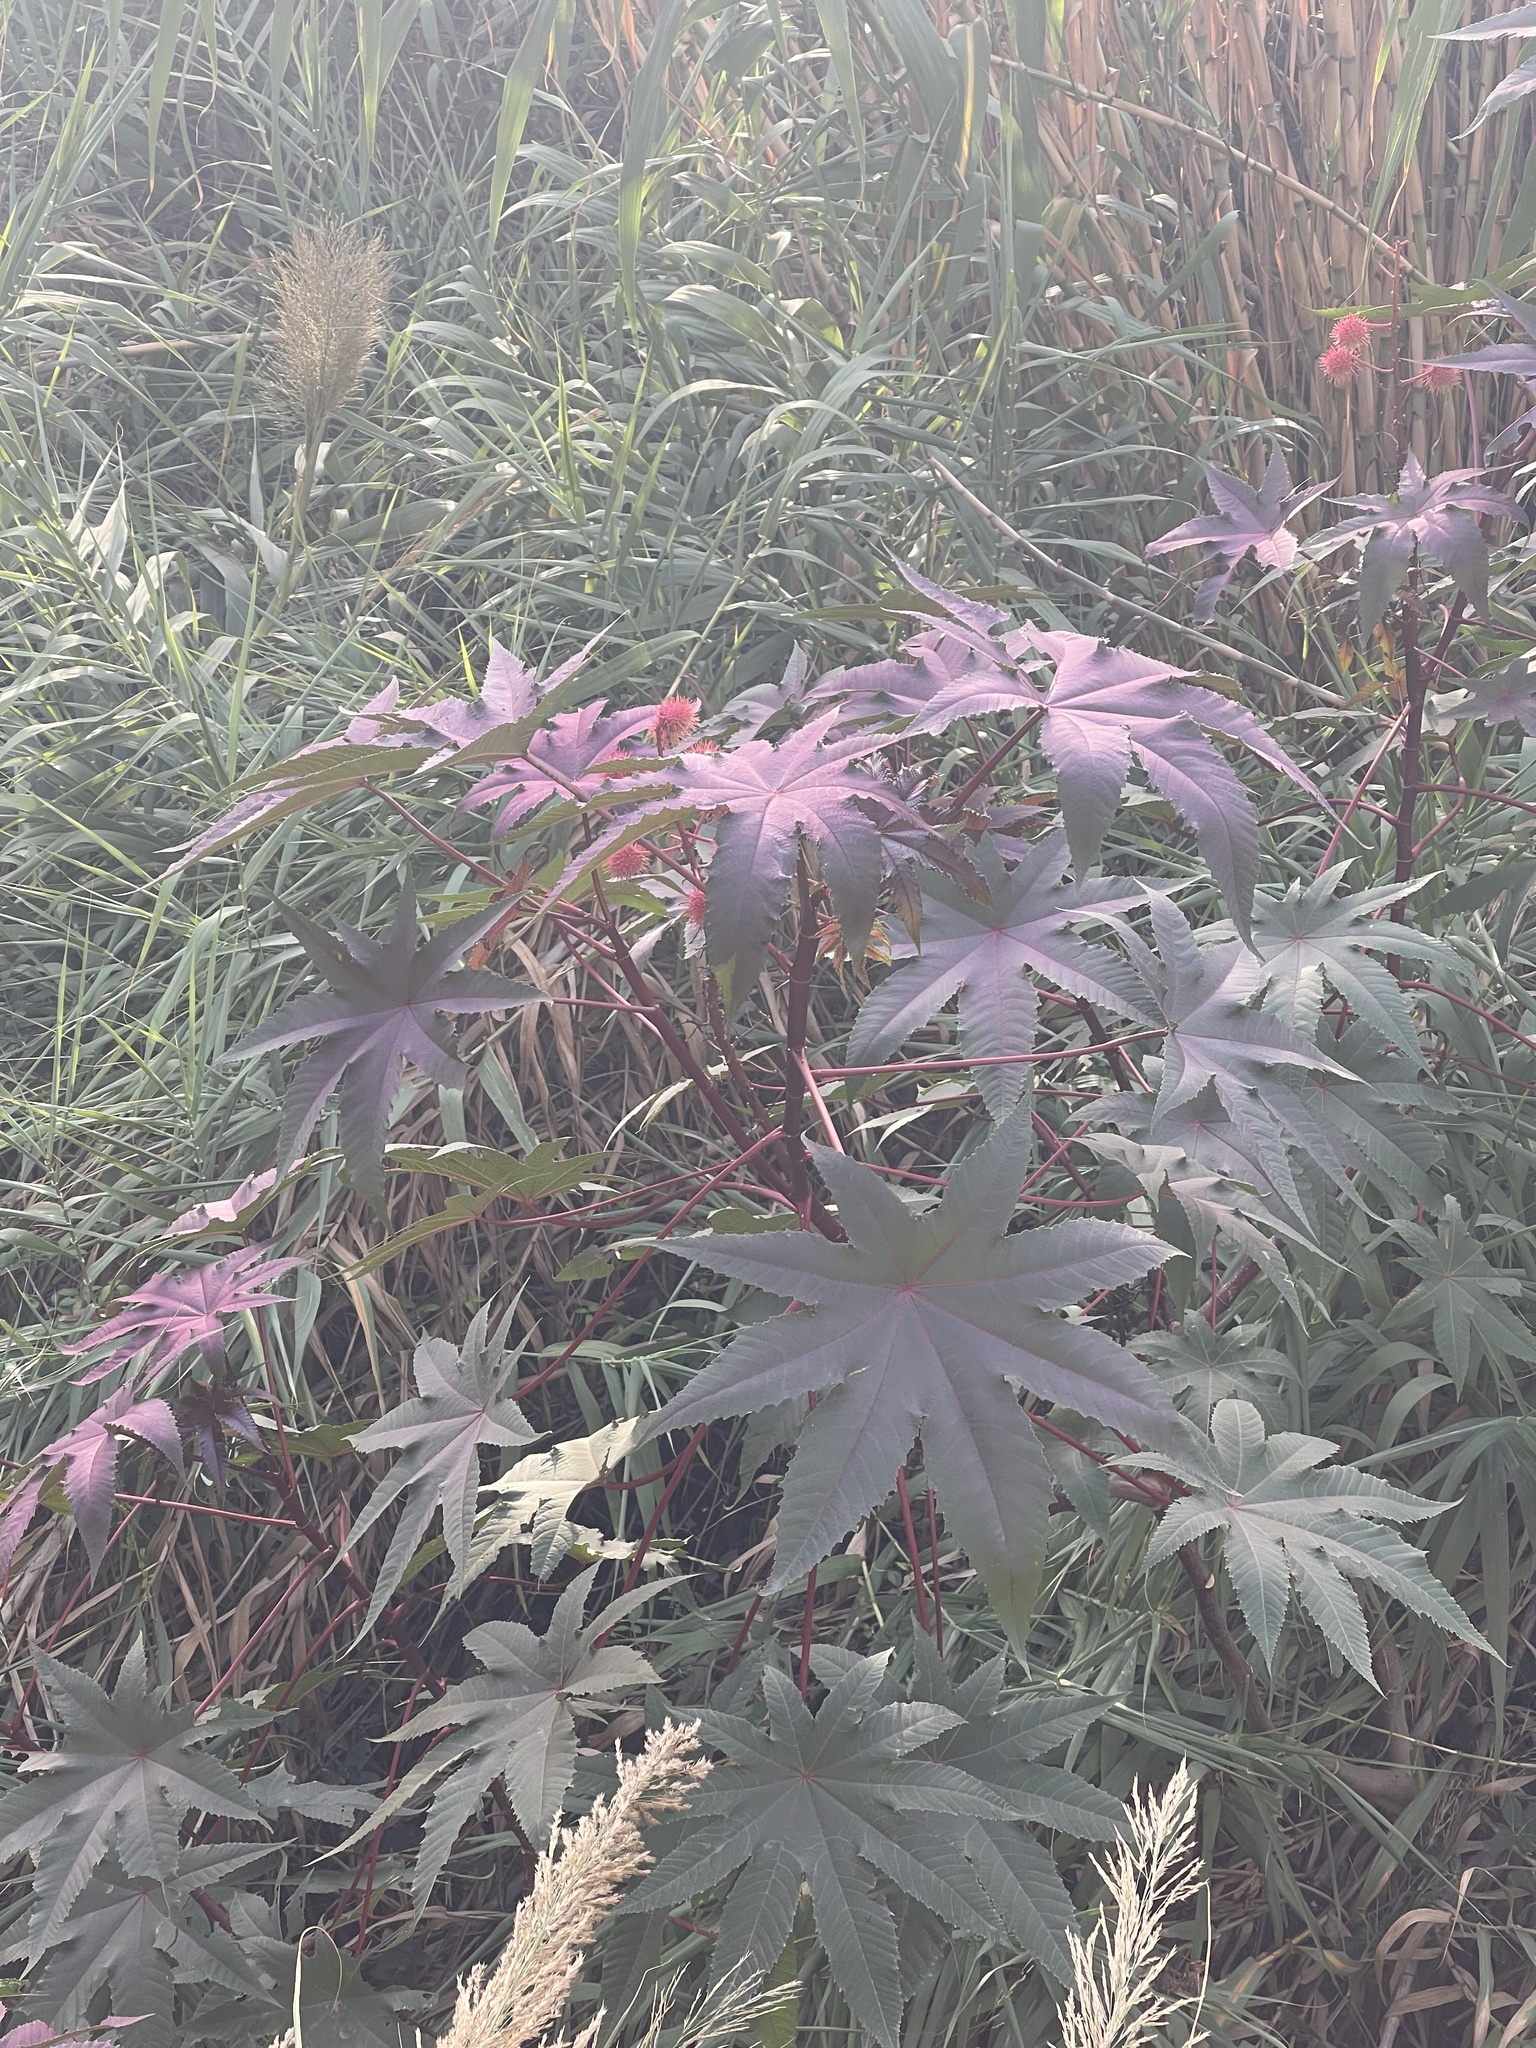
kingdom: Plantae
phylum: Tracheophyta
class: Magnoliopsida
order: Malpighiales
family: Euphorbiaceae
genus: Ricinus
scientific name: Ricinus communis
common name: Castor-oil-plant
